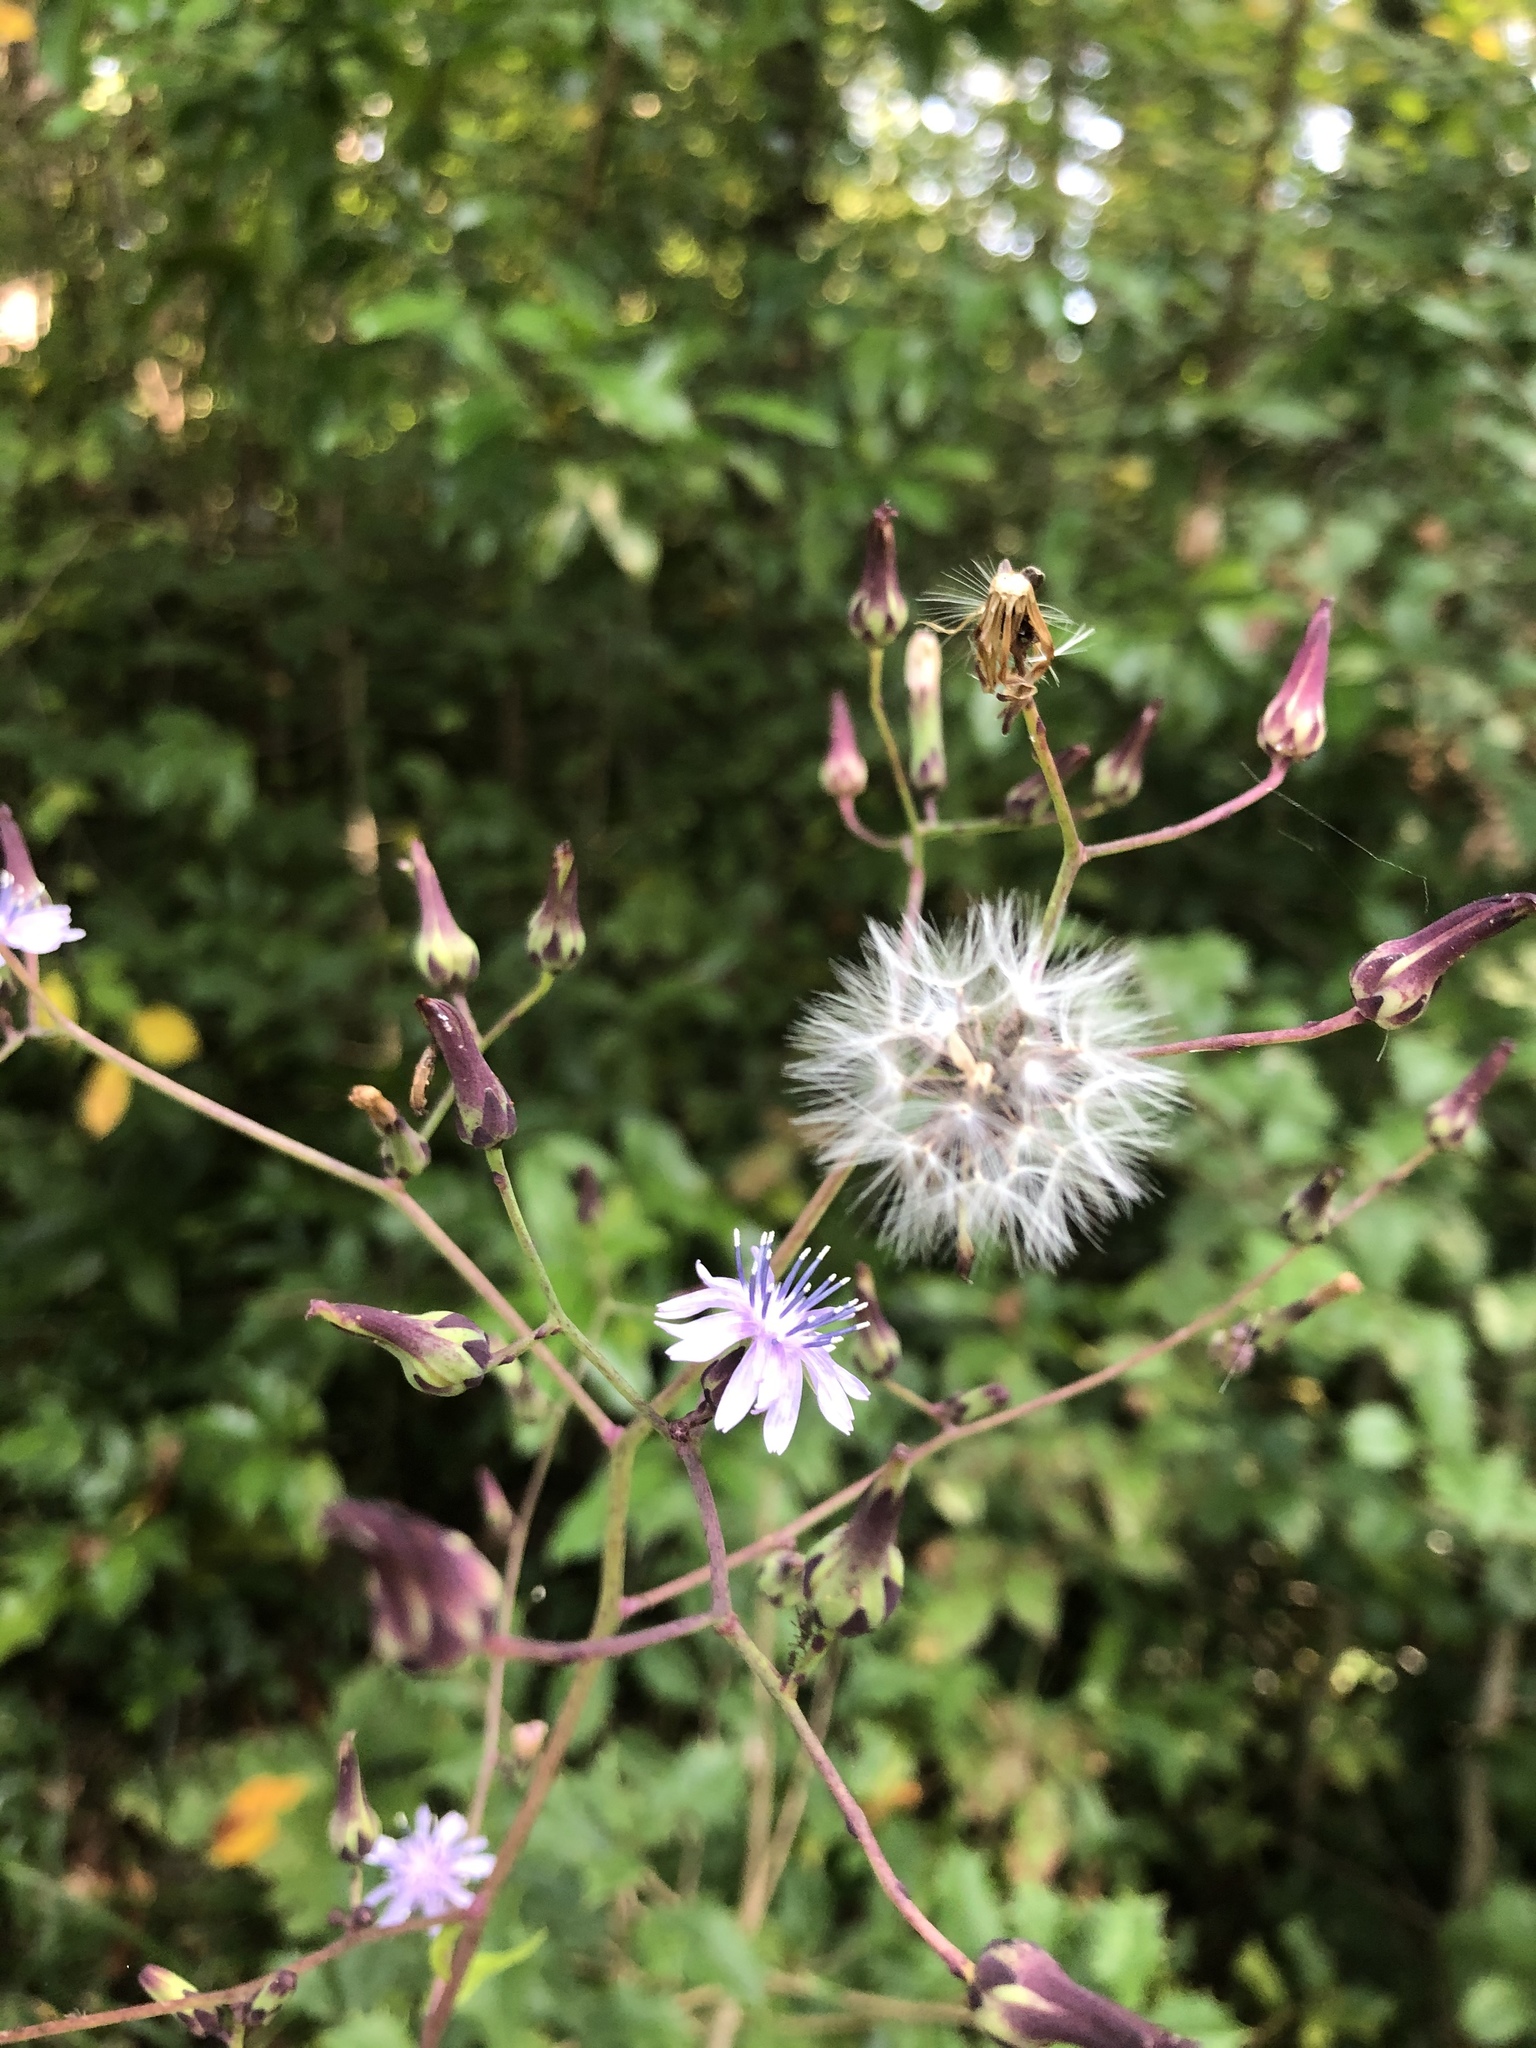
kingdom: Plantae
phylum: Tracheophyta
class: Magnoliopsida
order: Asterales
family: Asteraceae
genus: Lactuca
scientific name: Lactuca floridana
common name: Woodland lettuce
